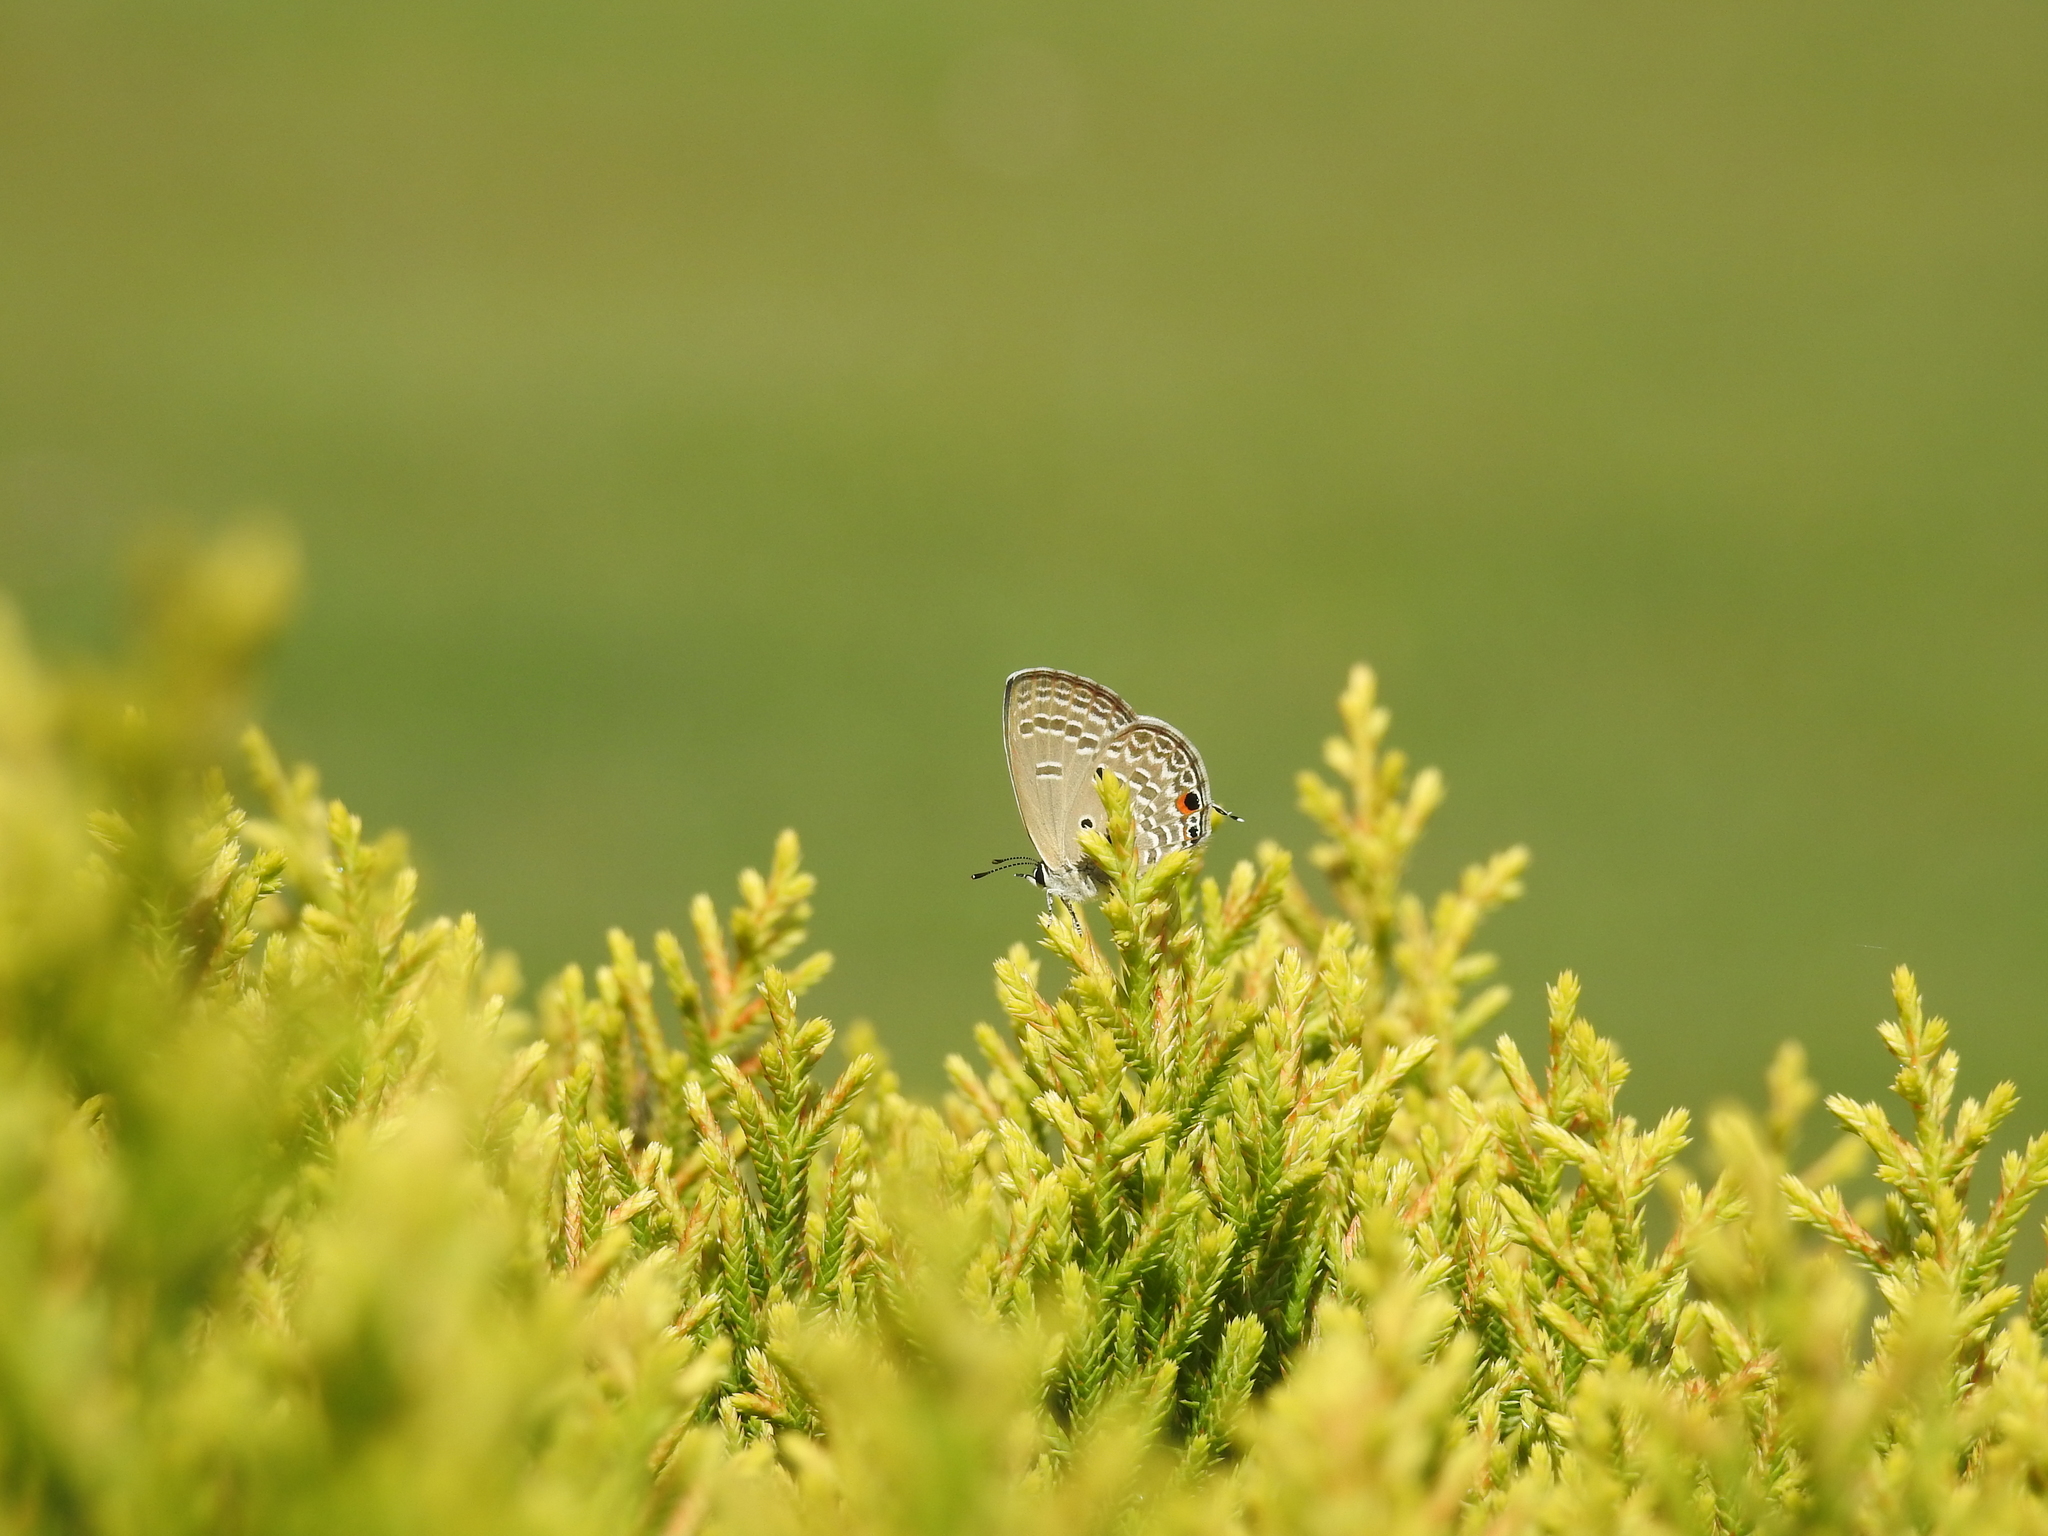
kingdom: Animalia
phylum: Arthropoda
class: Insecta
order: Lepidoptera
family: Lycaenidae
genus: Luthrodes
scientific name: Luthrodes pandava
